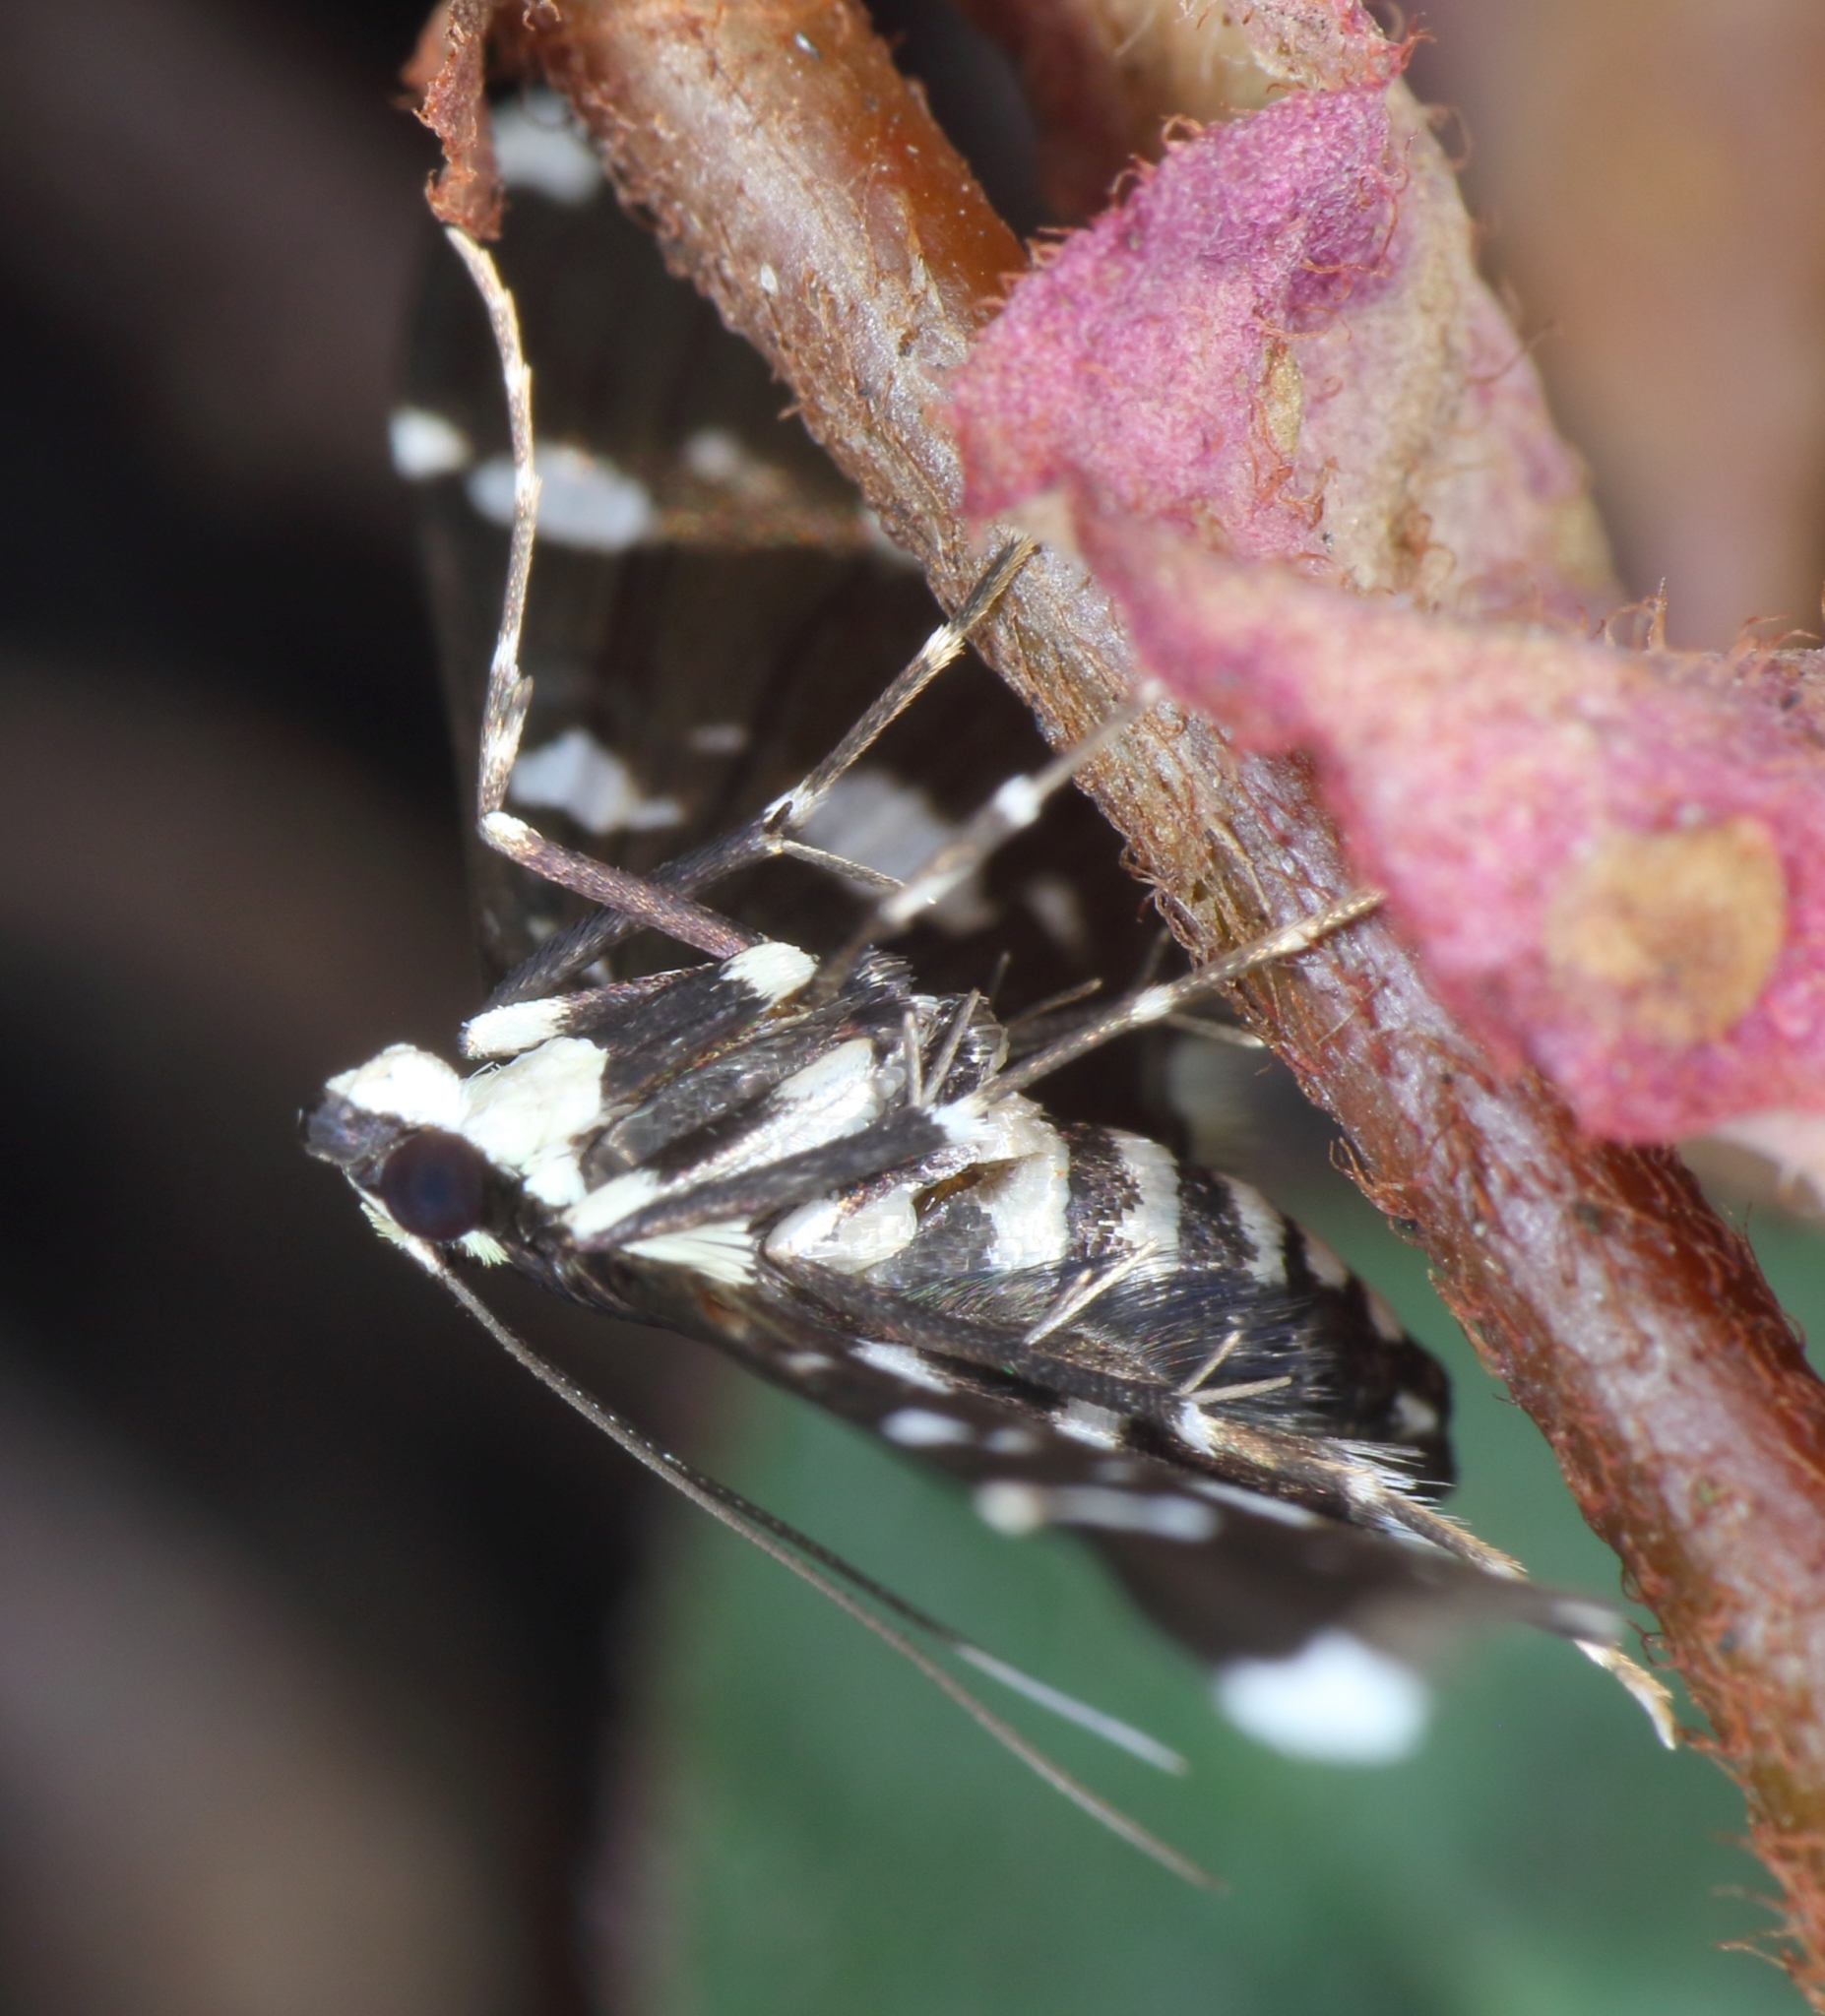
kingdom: Animalia
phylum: Arthropoda
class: Insecta
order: Lepidoptera
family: Crambidae
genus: Bocchoris
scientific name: Bocchoris inspersalis
